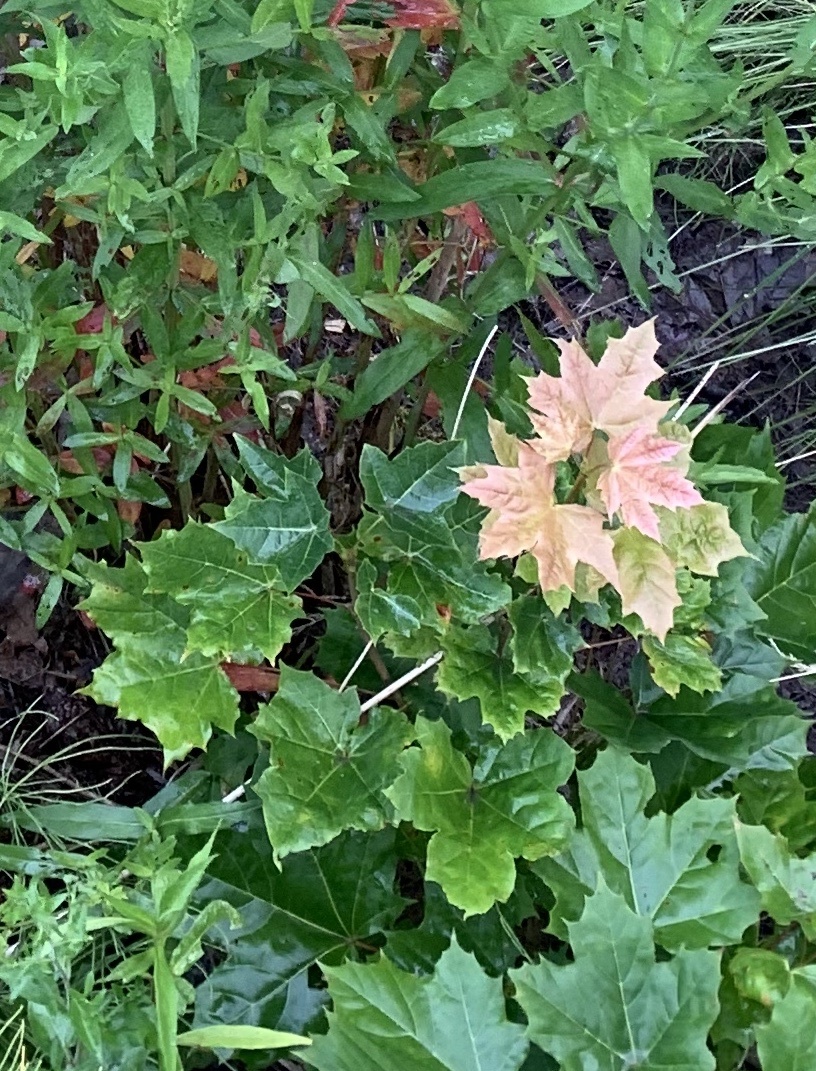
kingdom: Plantae
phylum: Tracheophyta
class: Magnoliopsida
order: Sapindales
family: Sapindaceae
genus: Acer
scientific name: Acer platanoides
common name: Norway maple
